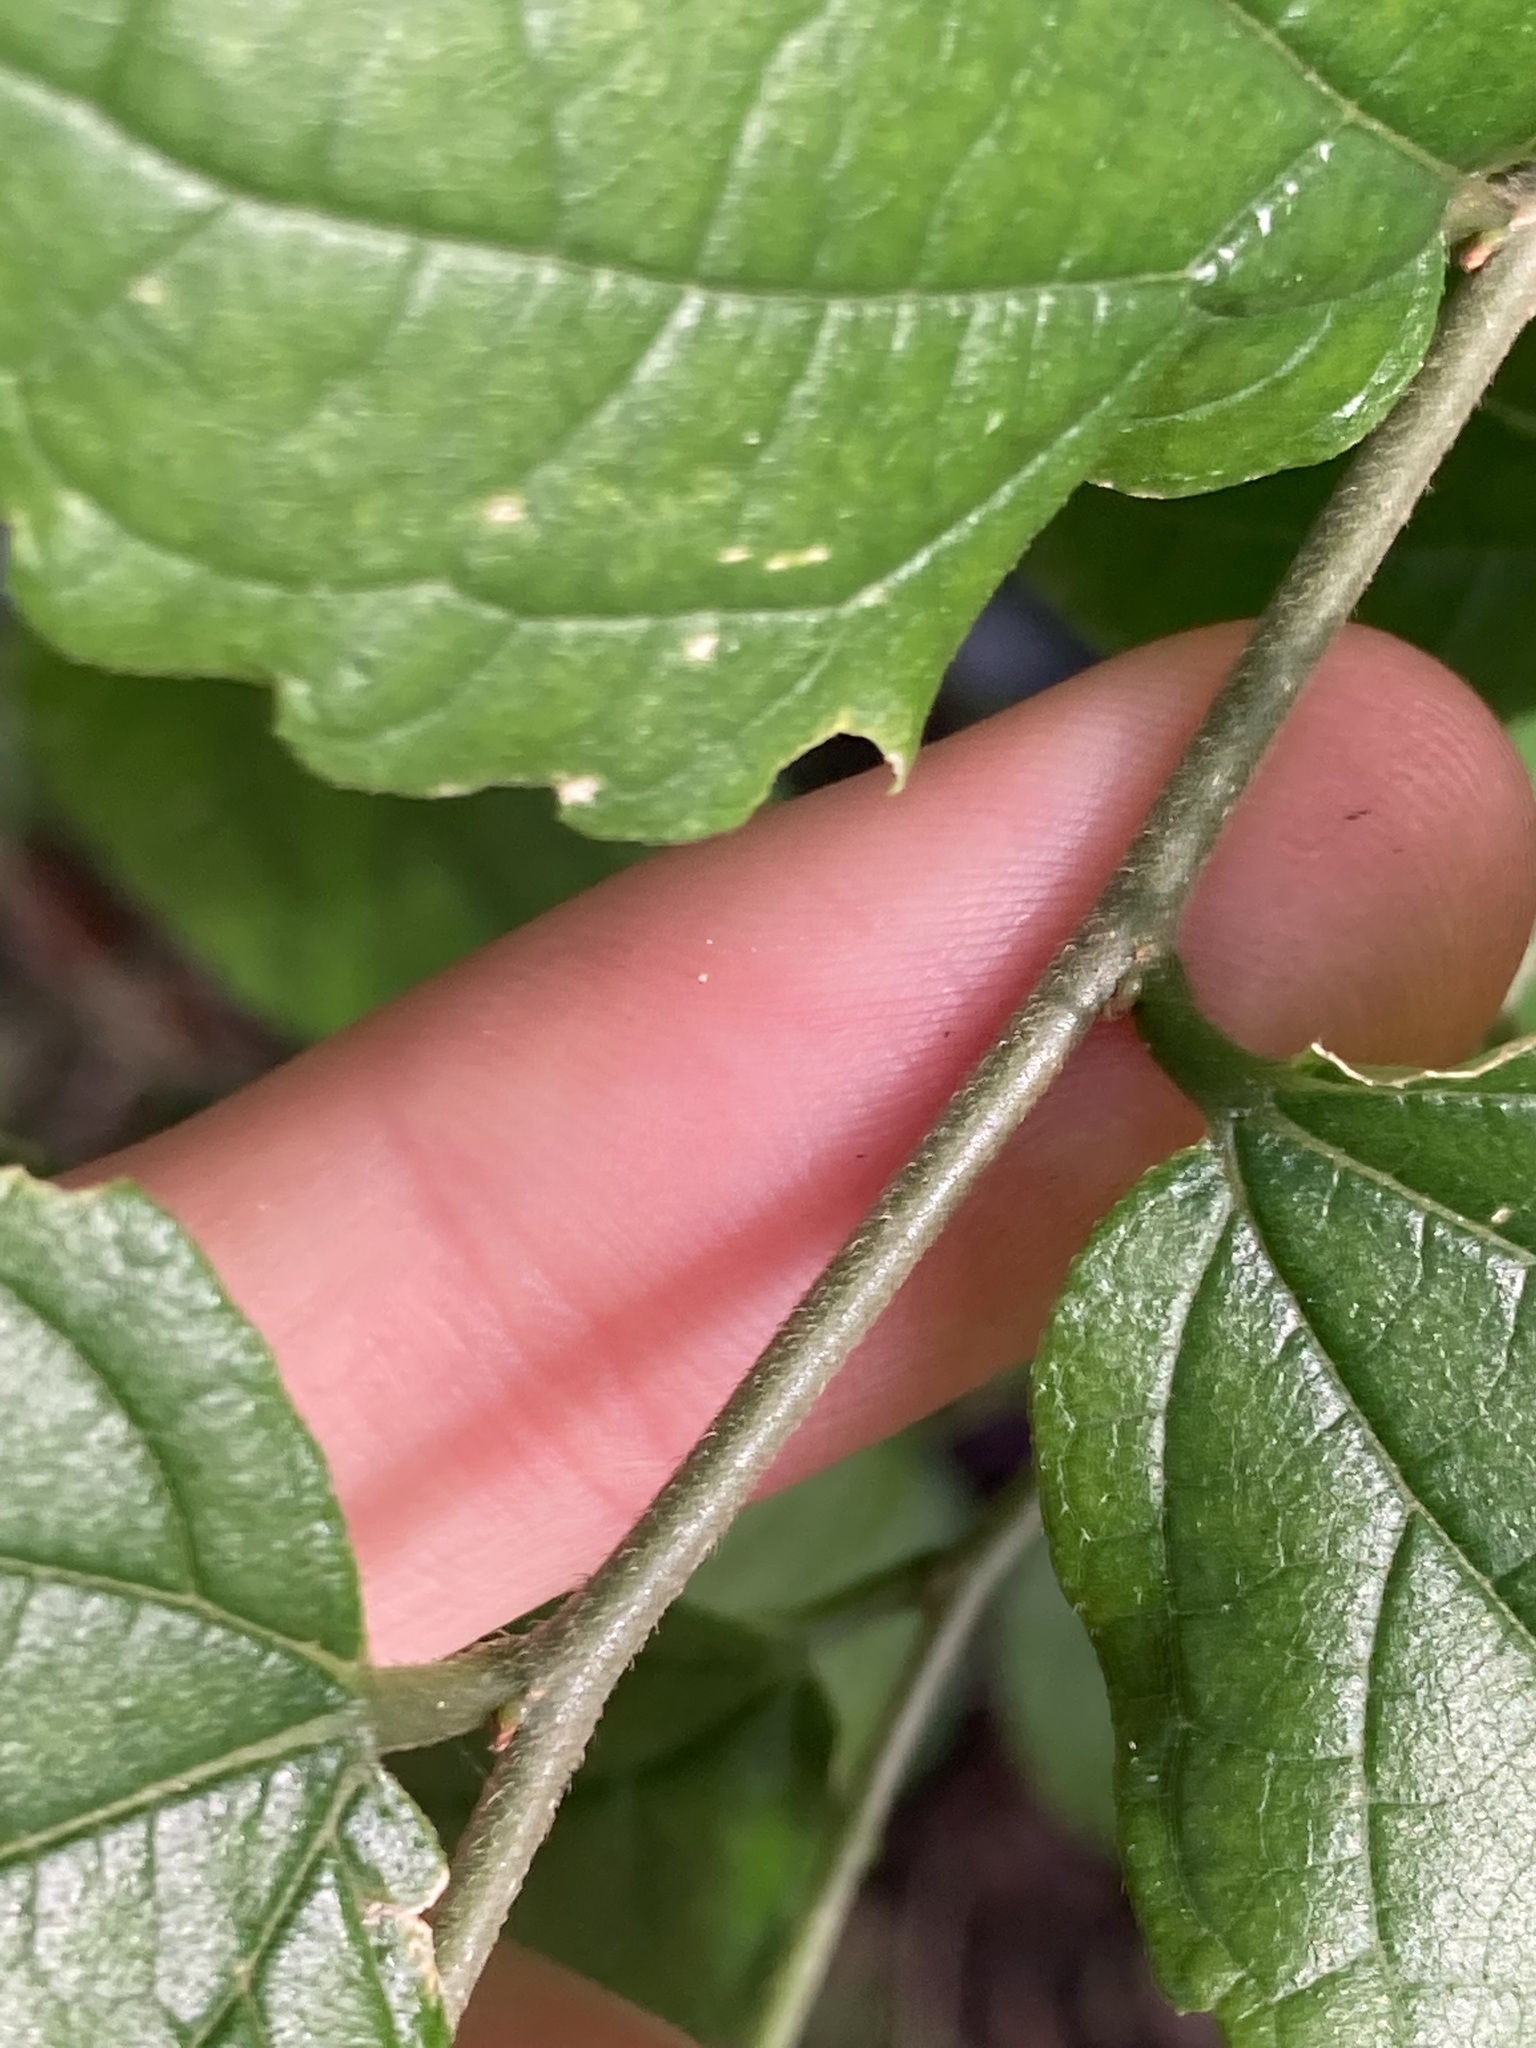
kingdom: Plantae
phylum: Tracheophyta
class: Magnoliopsida
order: Rosales
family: Cannabaceae
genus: Celtis
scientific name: Celtis sinensis
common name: Chinese hackberry
